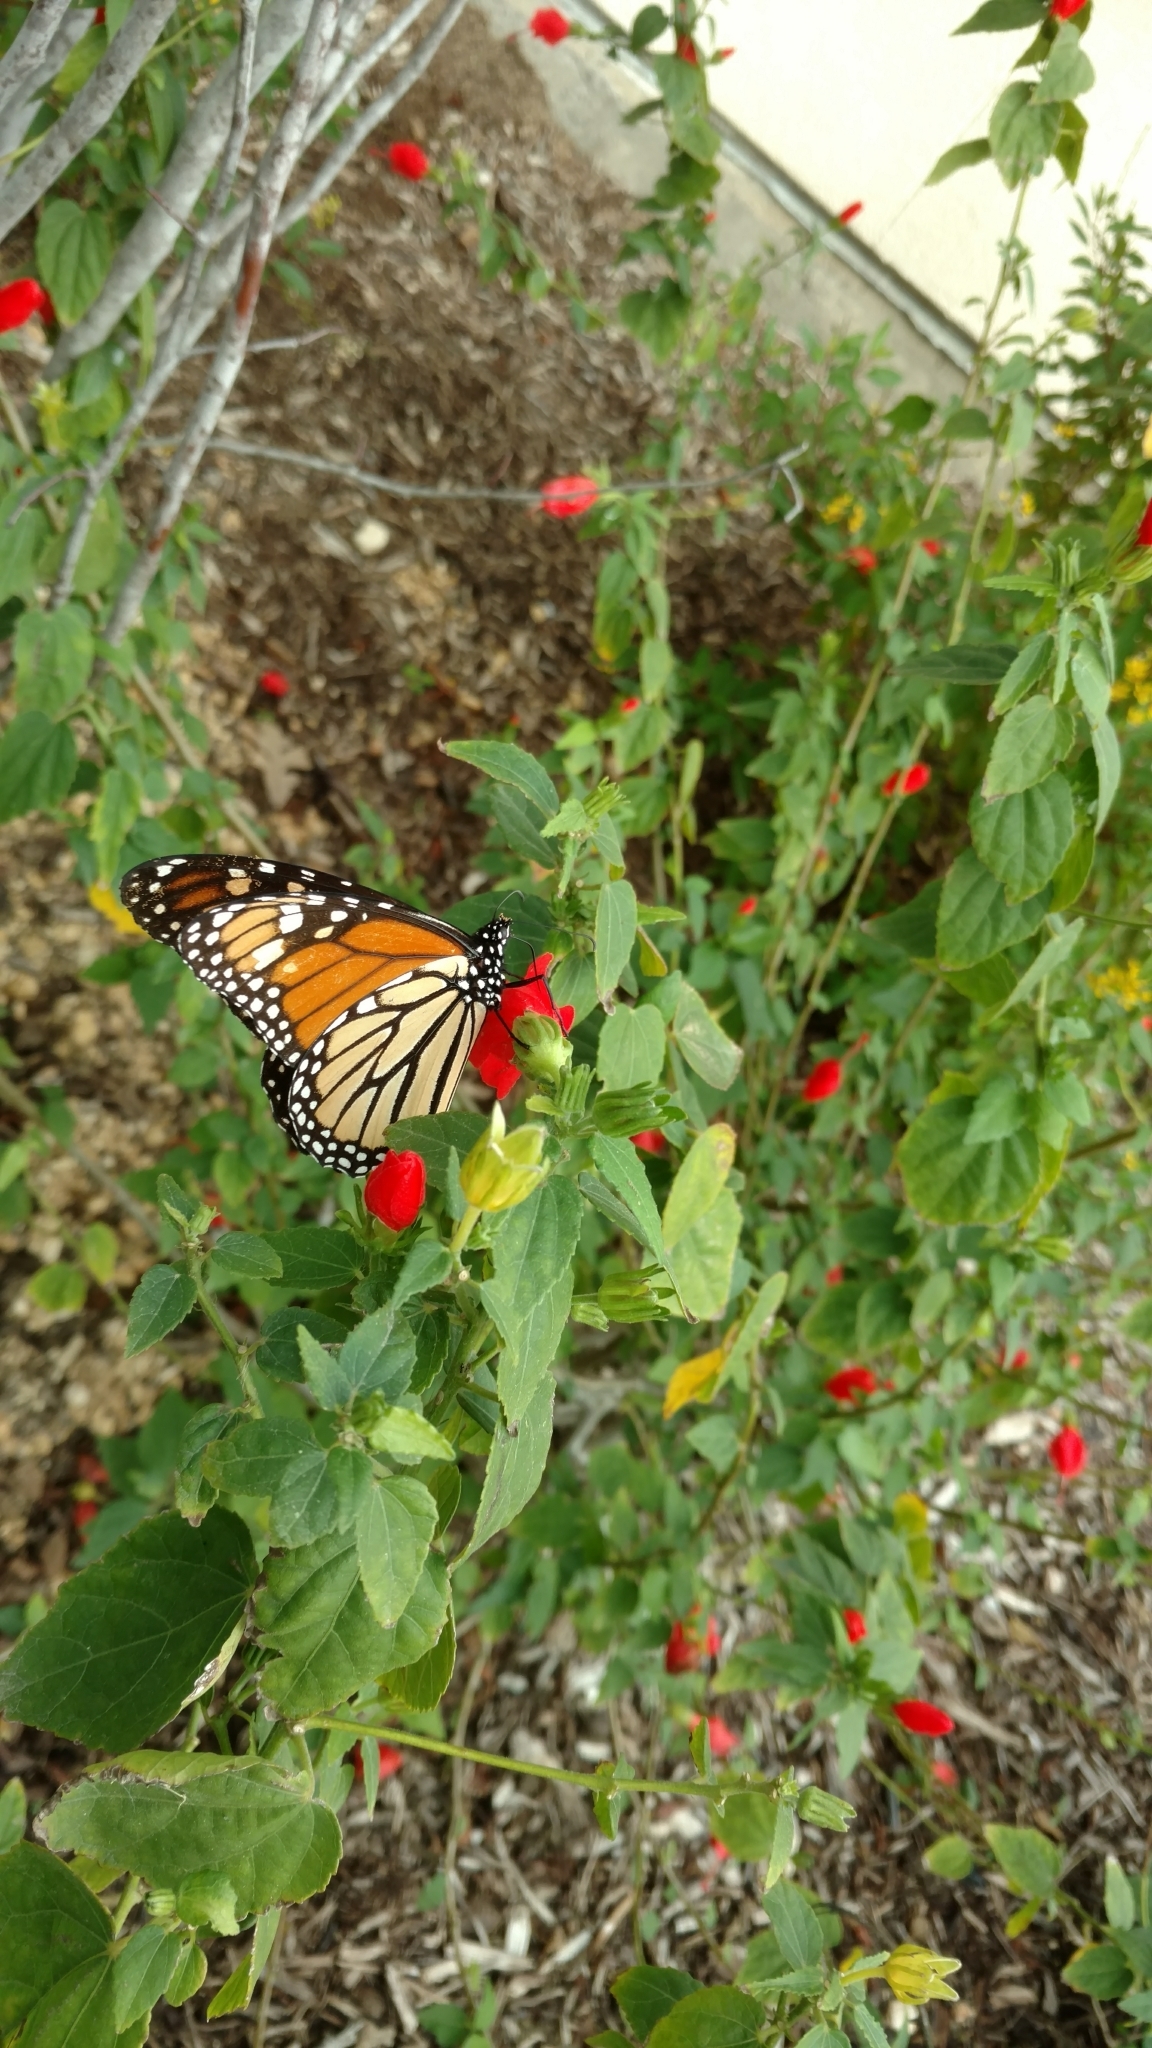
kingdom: Animalia
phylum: Arthropoda
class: Insecta
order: Lepidoptera
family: Nymphalidae
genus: Danaus
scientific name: Danaus plexippus
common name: Monarch
